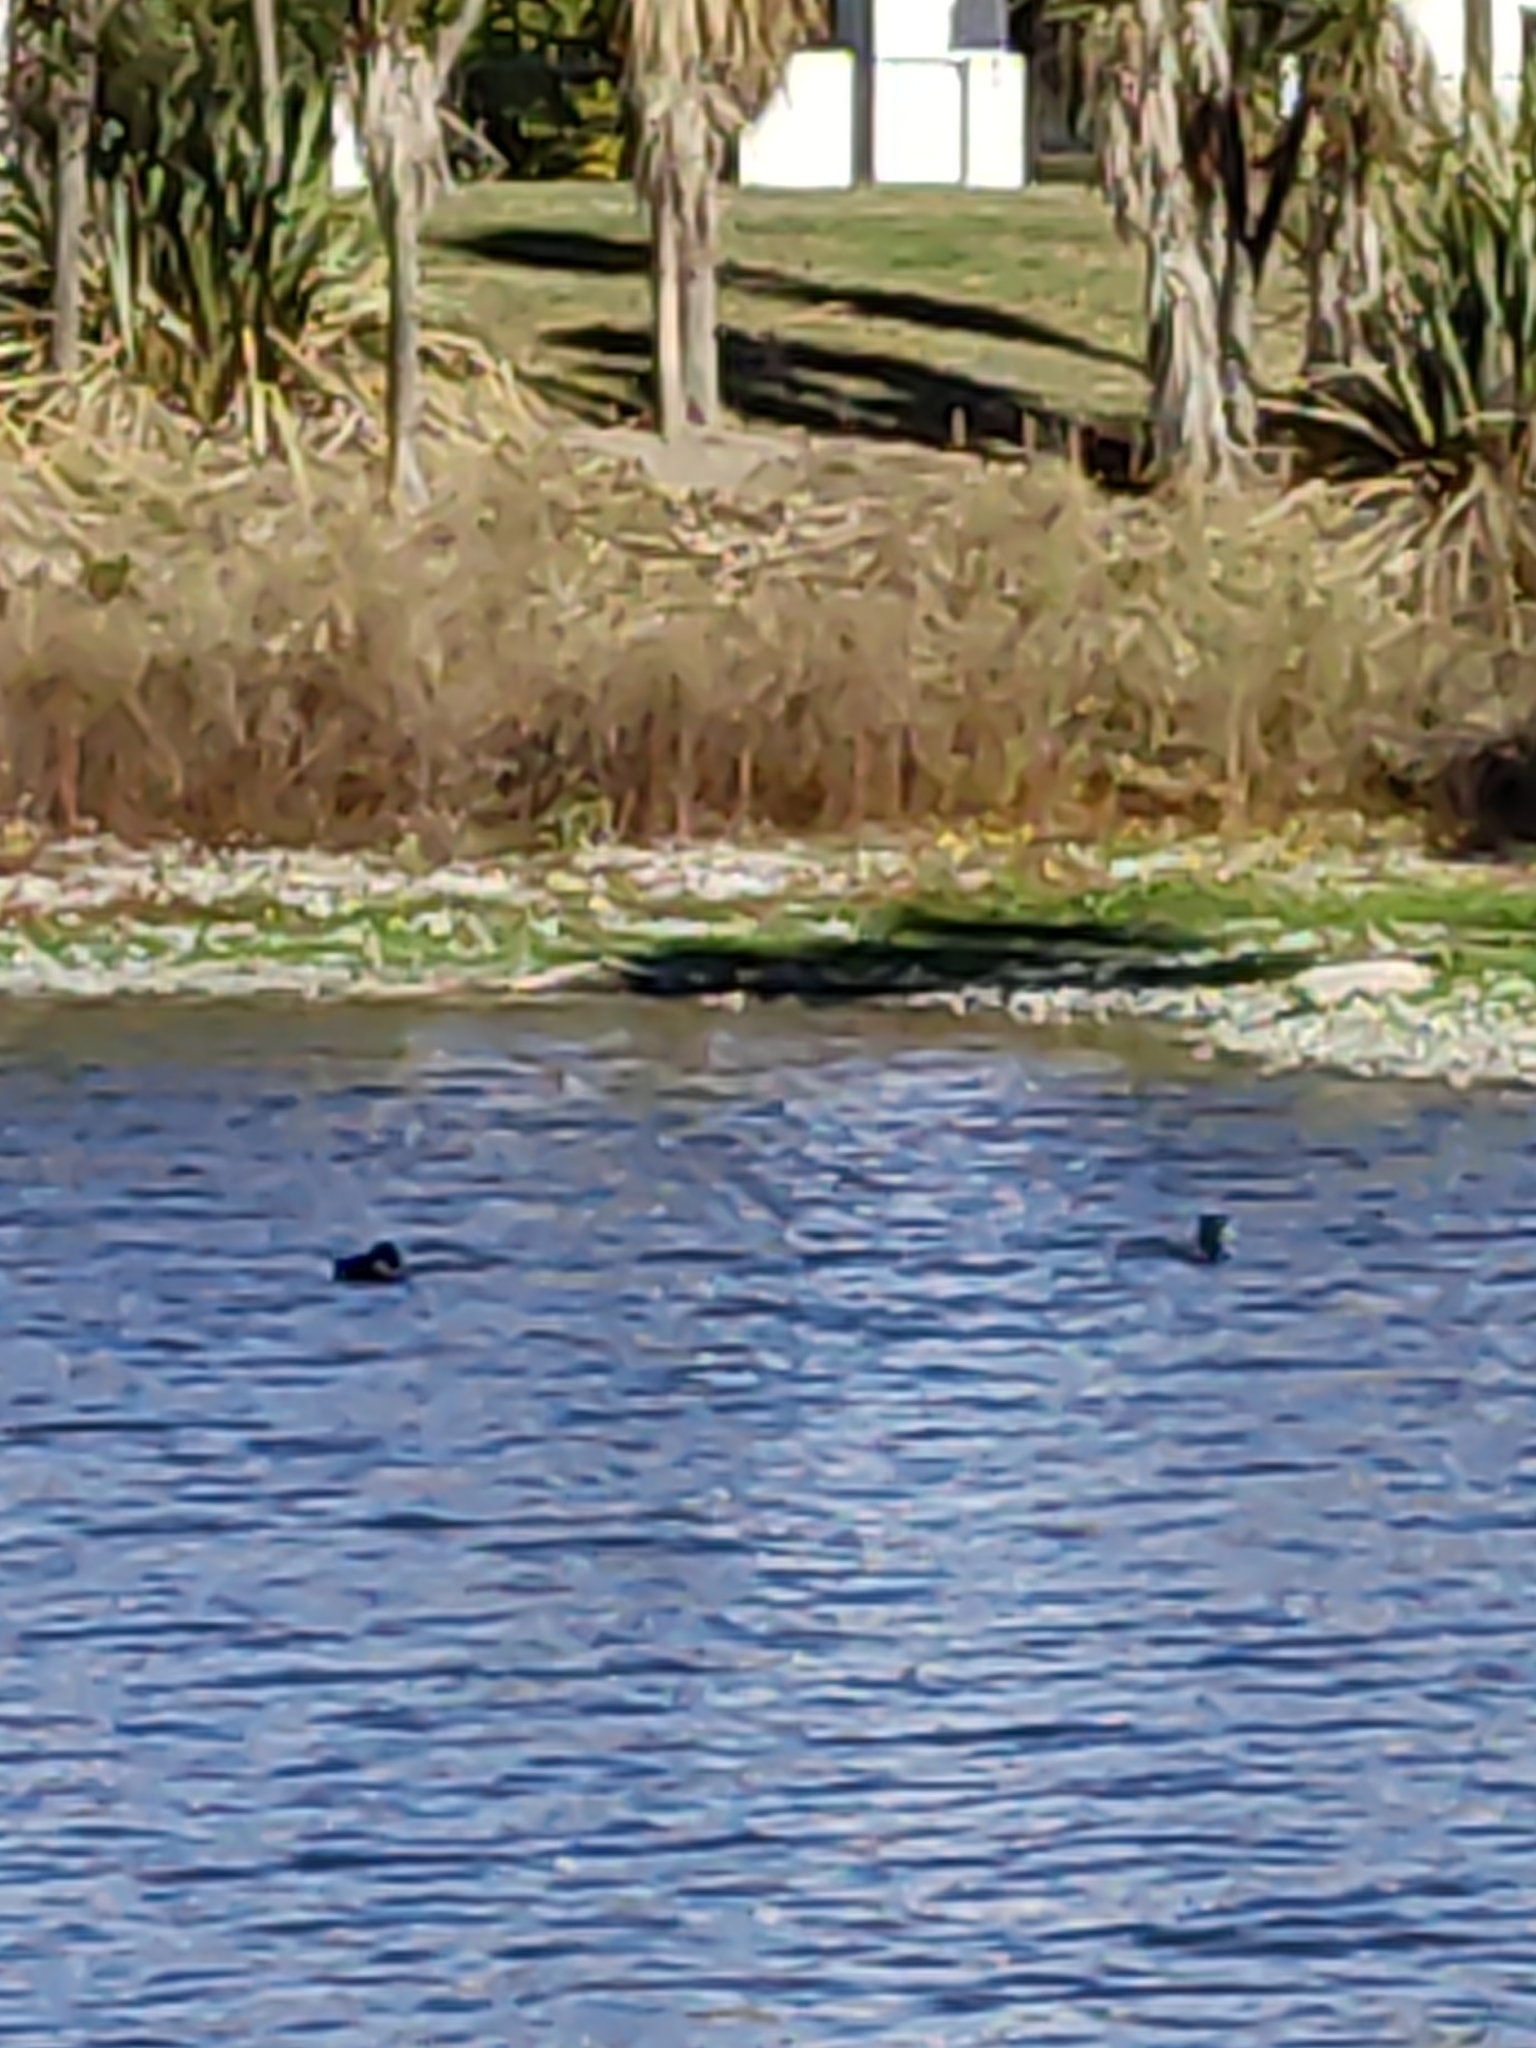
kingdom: Animalia
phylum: Chordata
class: Aves
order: Anseriformes
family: Anatidae
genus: Aythya
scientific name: Aythya novaeseelandiae
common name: New zealand scaup
